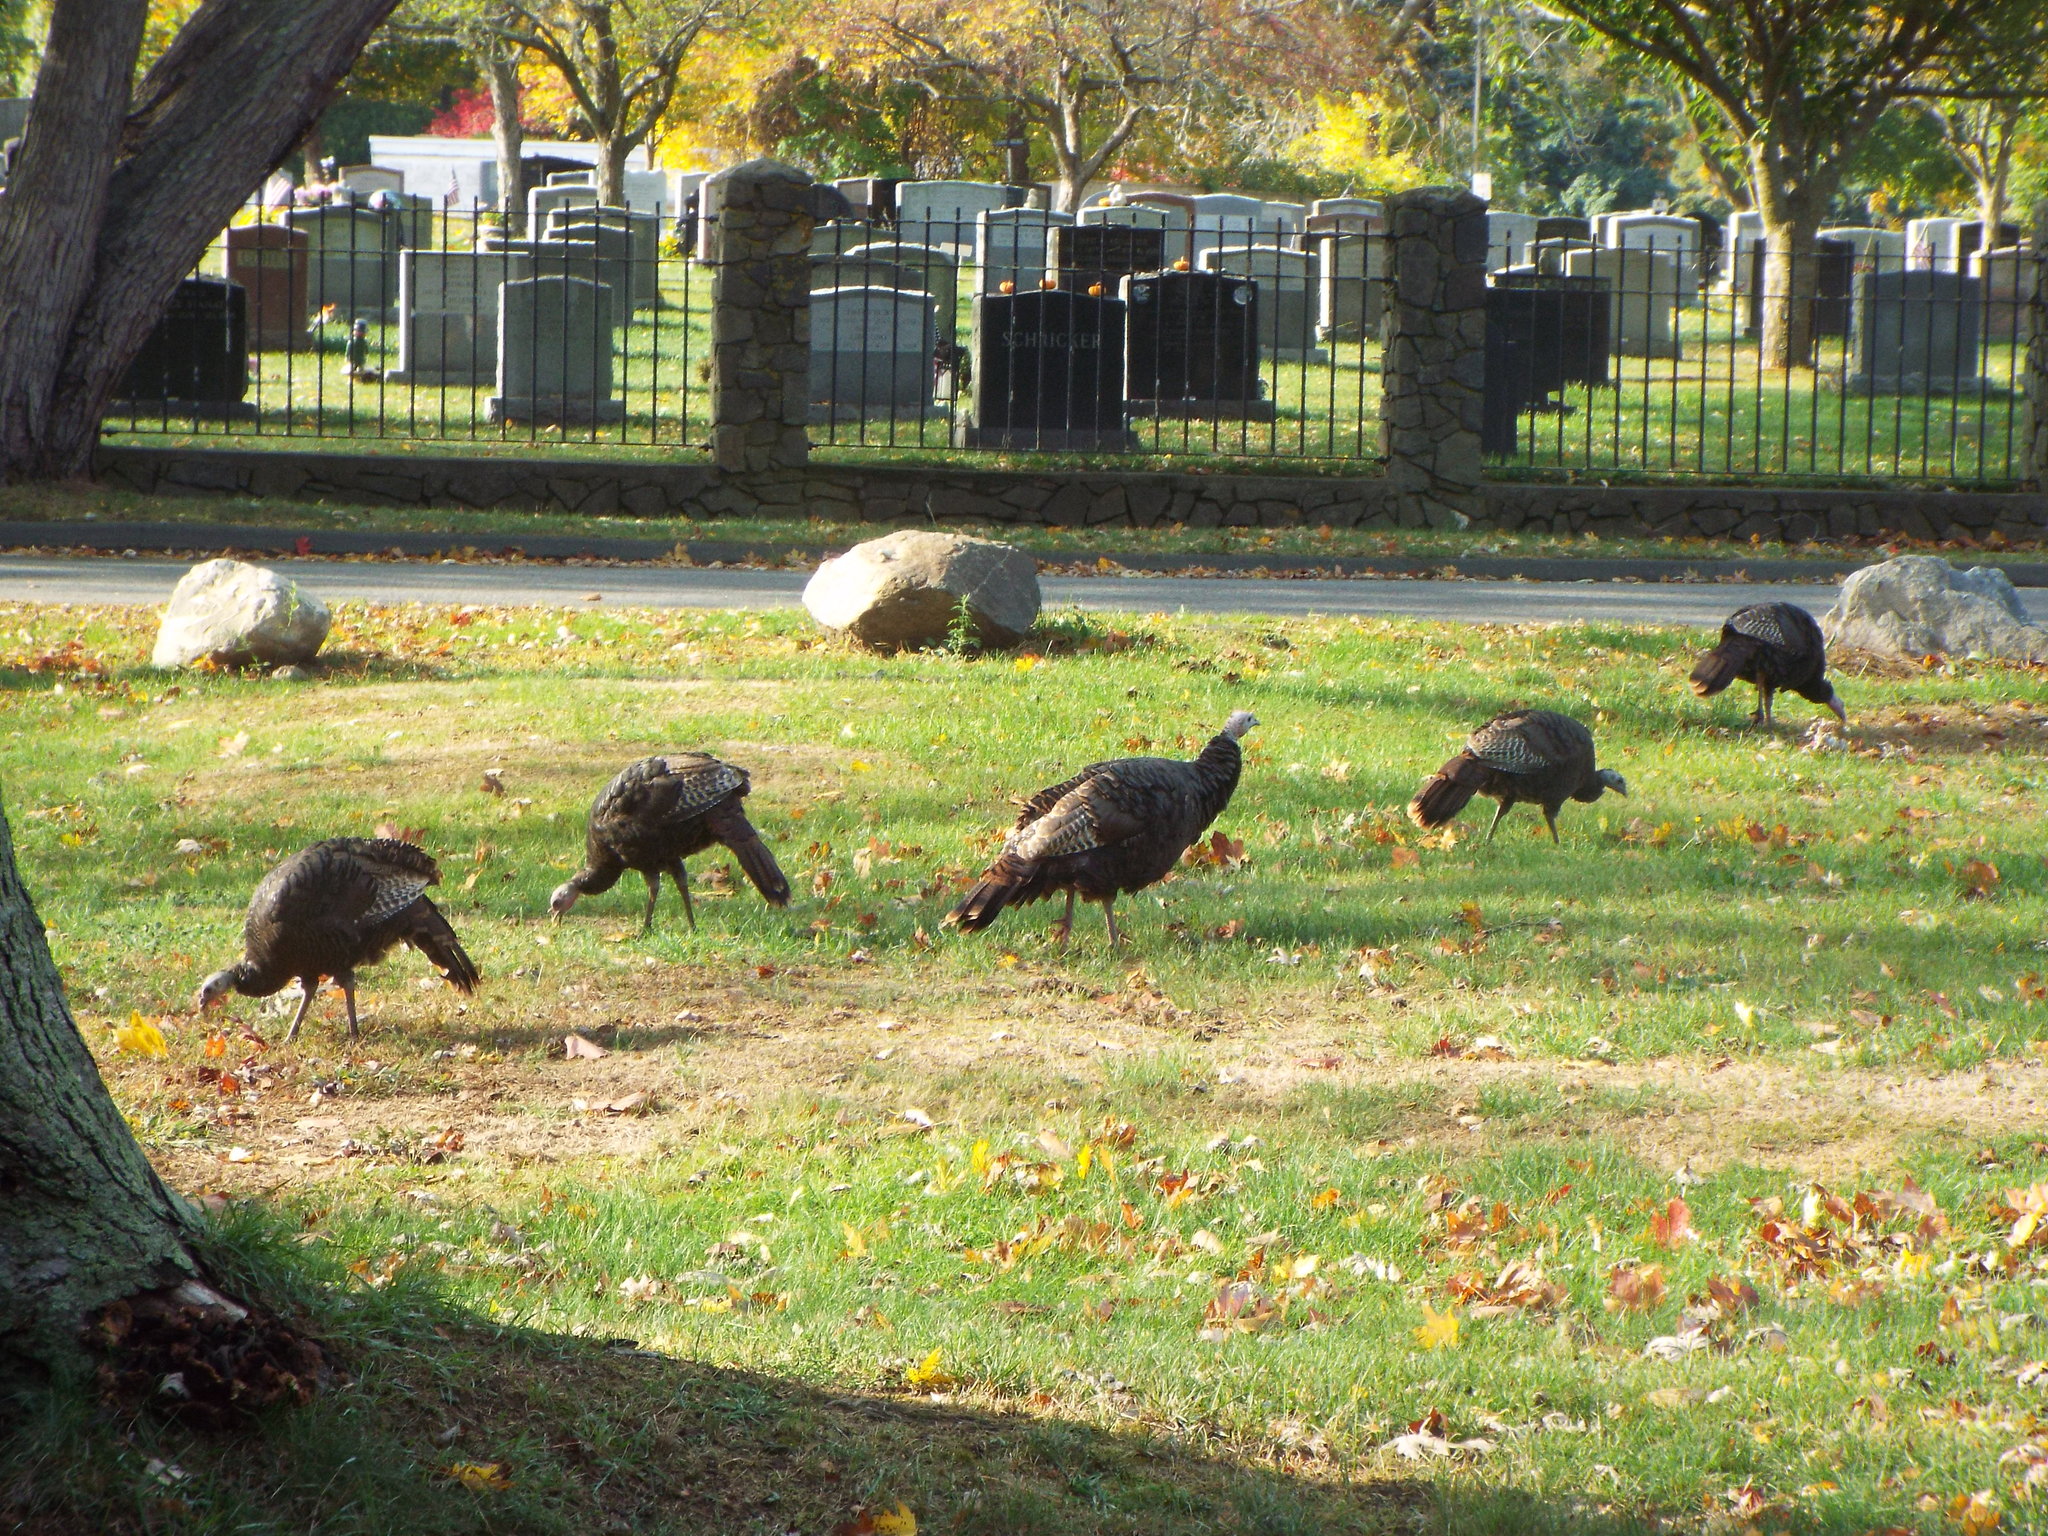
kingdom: Animalia
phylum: Chordata
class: Aves
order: Galliformes
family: Phasianidae
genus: Meleagris
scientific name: Meleagris gallopavo
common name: Wild turkey
